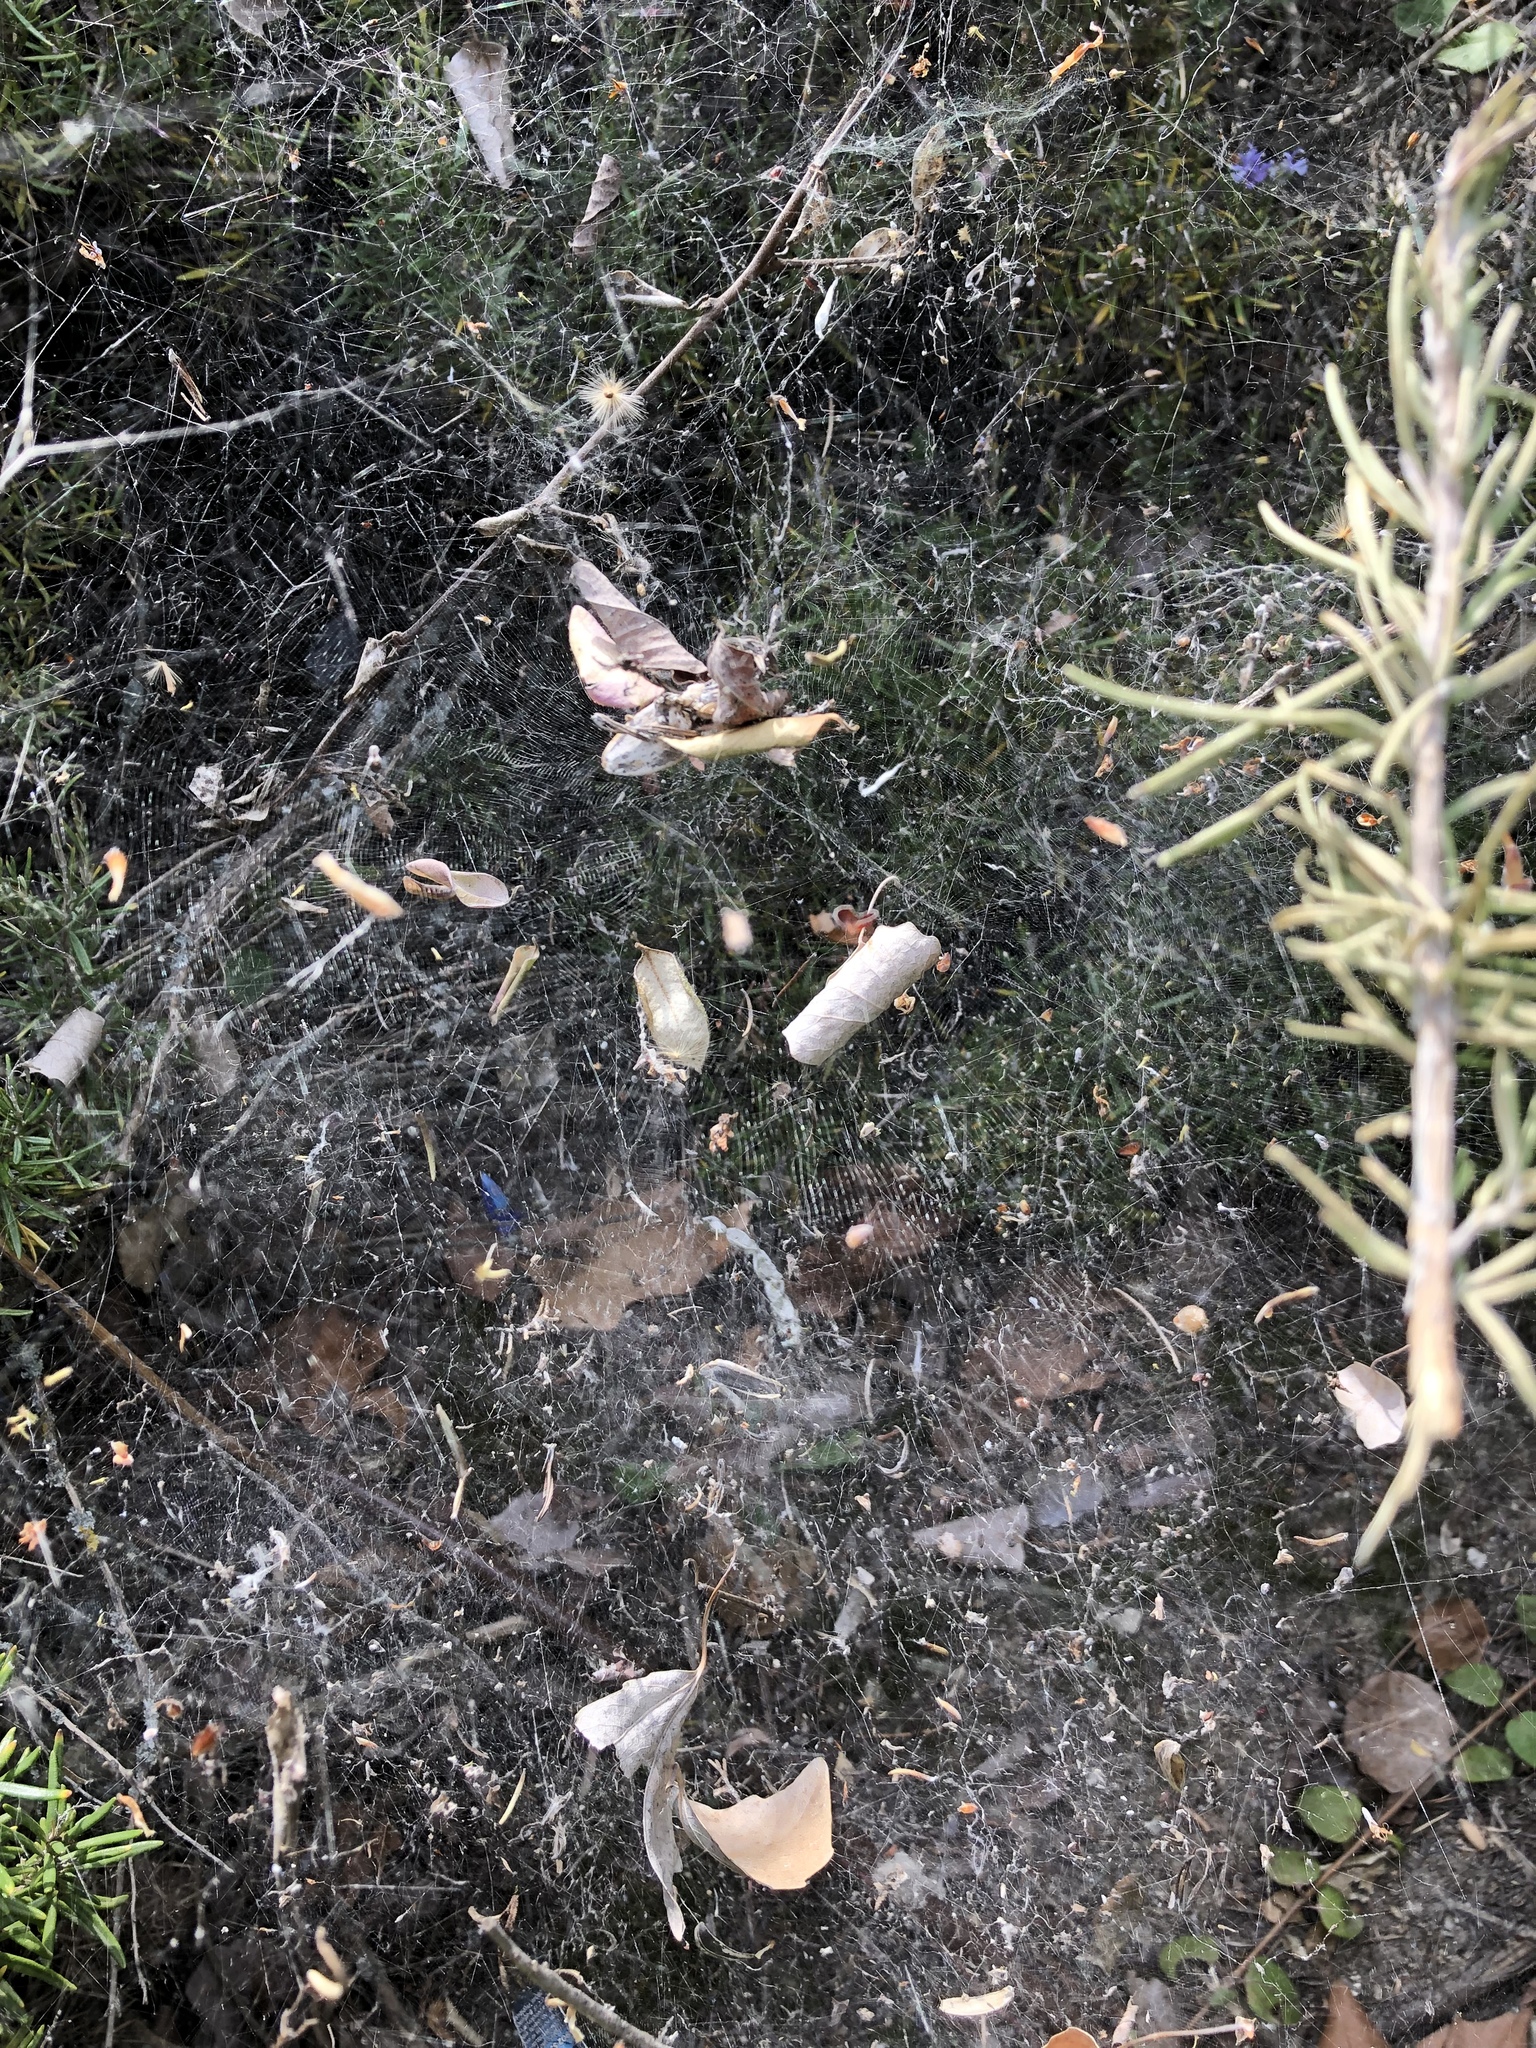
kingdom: Animalia
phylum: Arthropoda
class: Arachnida
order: Araneae
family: Araneidae
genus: Cyrtophora
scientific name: Cyrtophora citricola
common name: Orb weavers
